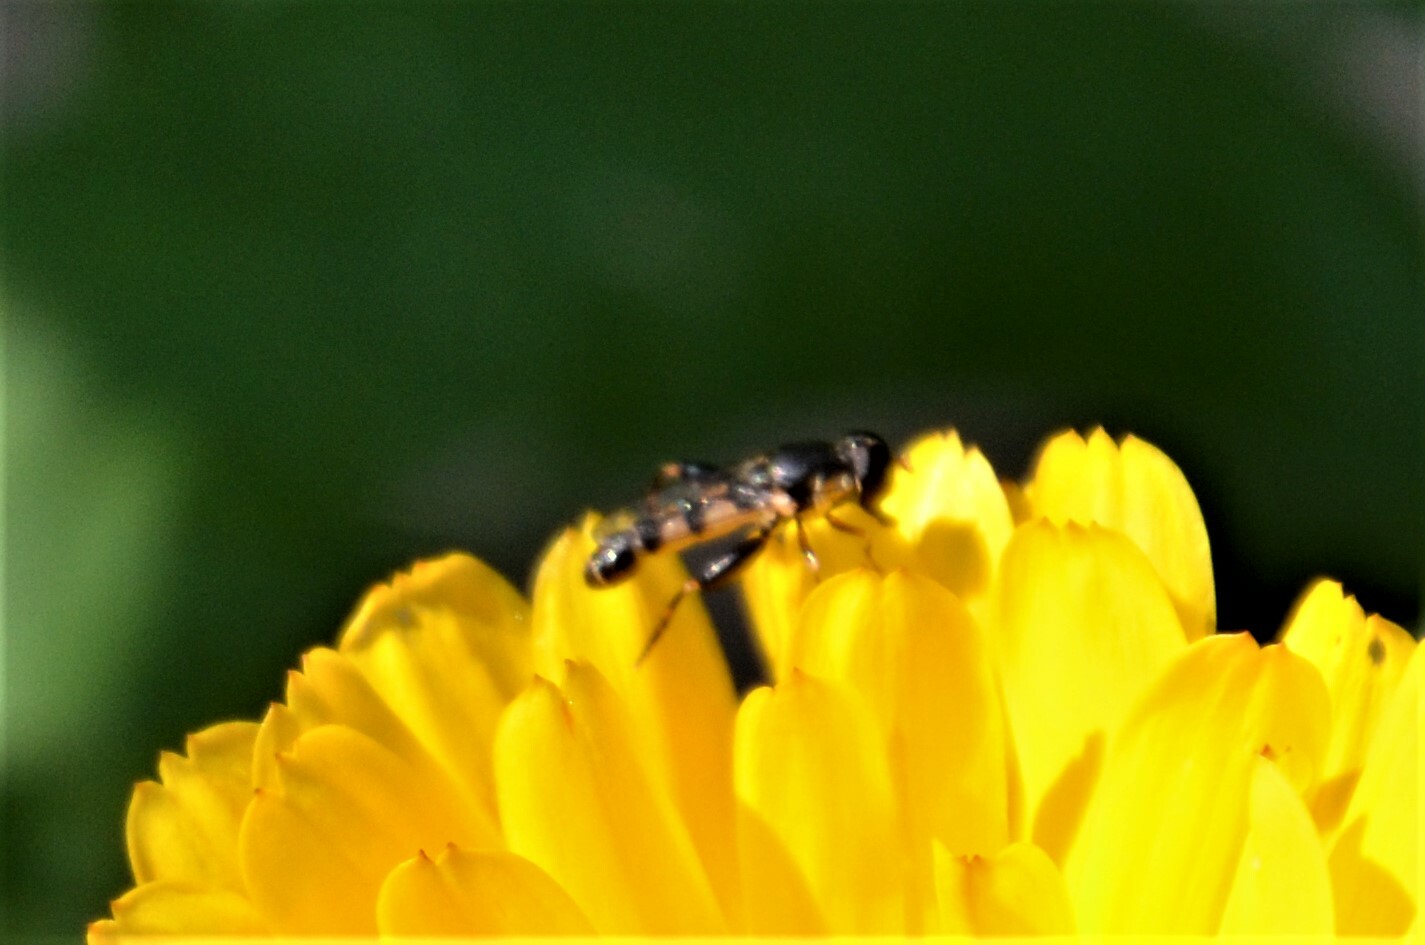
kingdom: Animalia
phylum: Arthropoda
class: Insecta
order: Diptera
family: Syrphidae
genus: Syritta
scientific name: Syritta pipiens
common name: Hover fly
